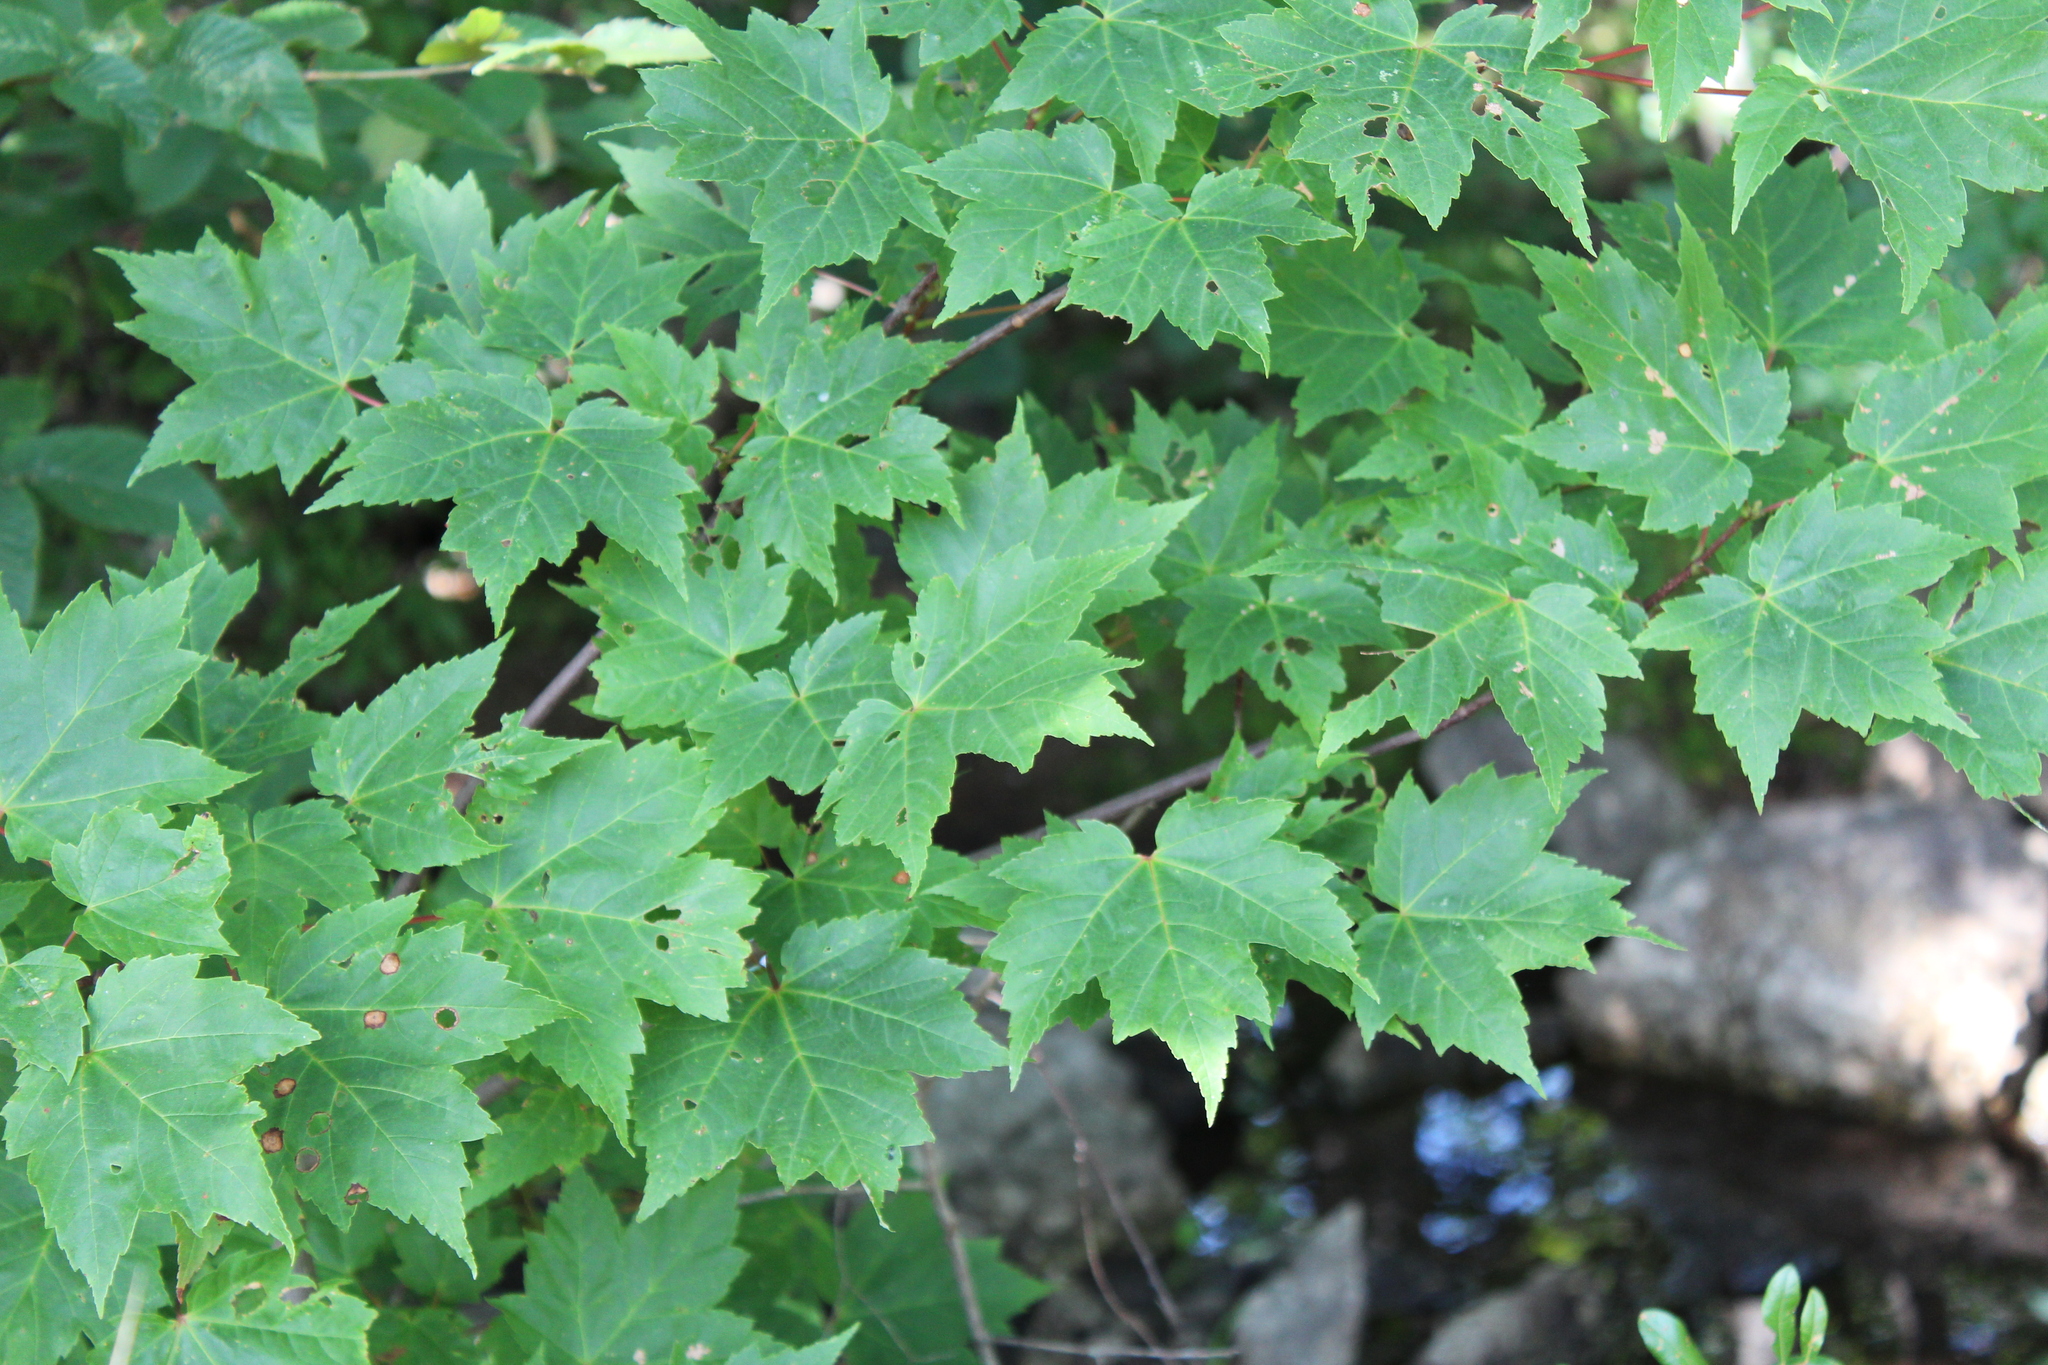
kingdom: Plantae
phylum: Tracheophyta
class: Magnoliopsida
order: Sapindales
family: Sapindaceae
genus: Acer
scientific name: Acer rubrum
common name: Red maple
